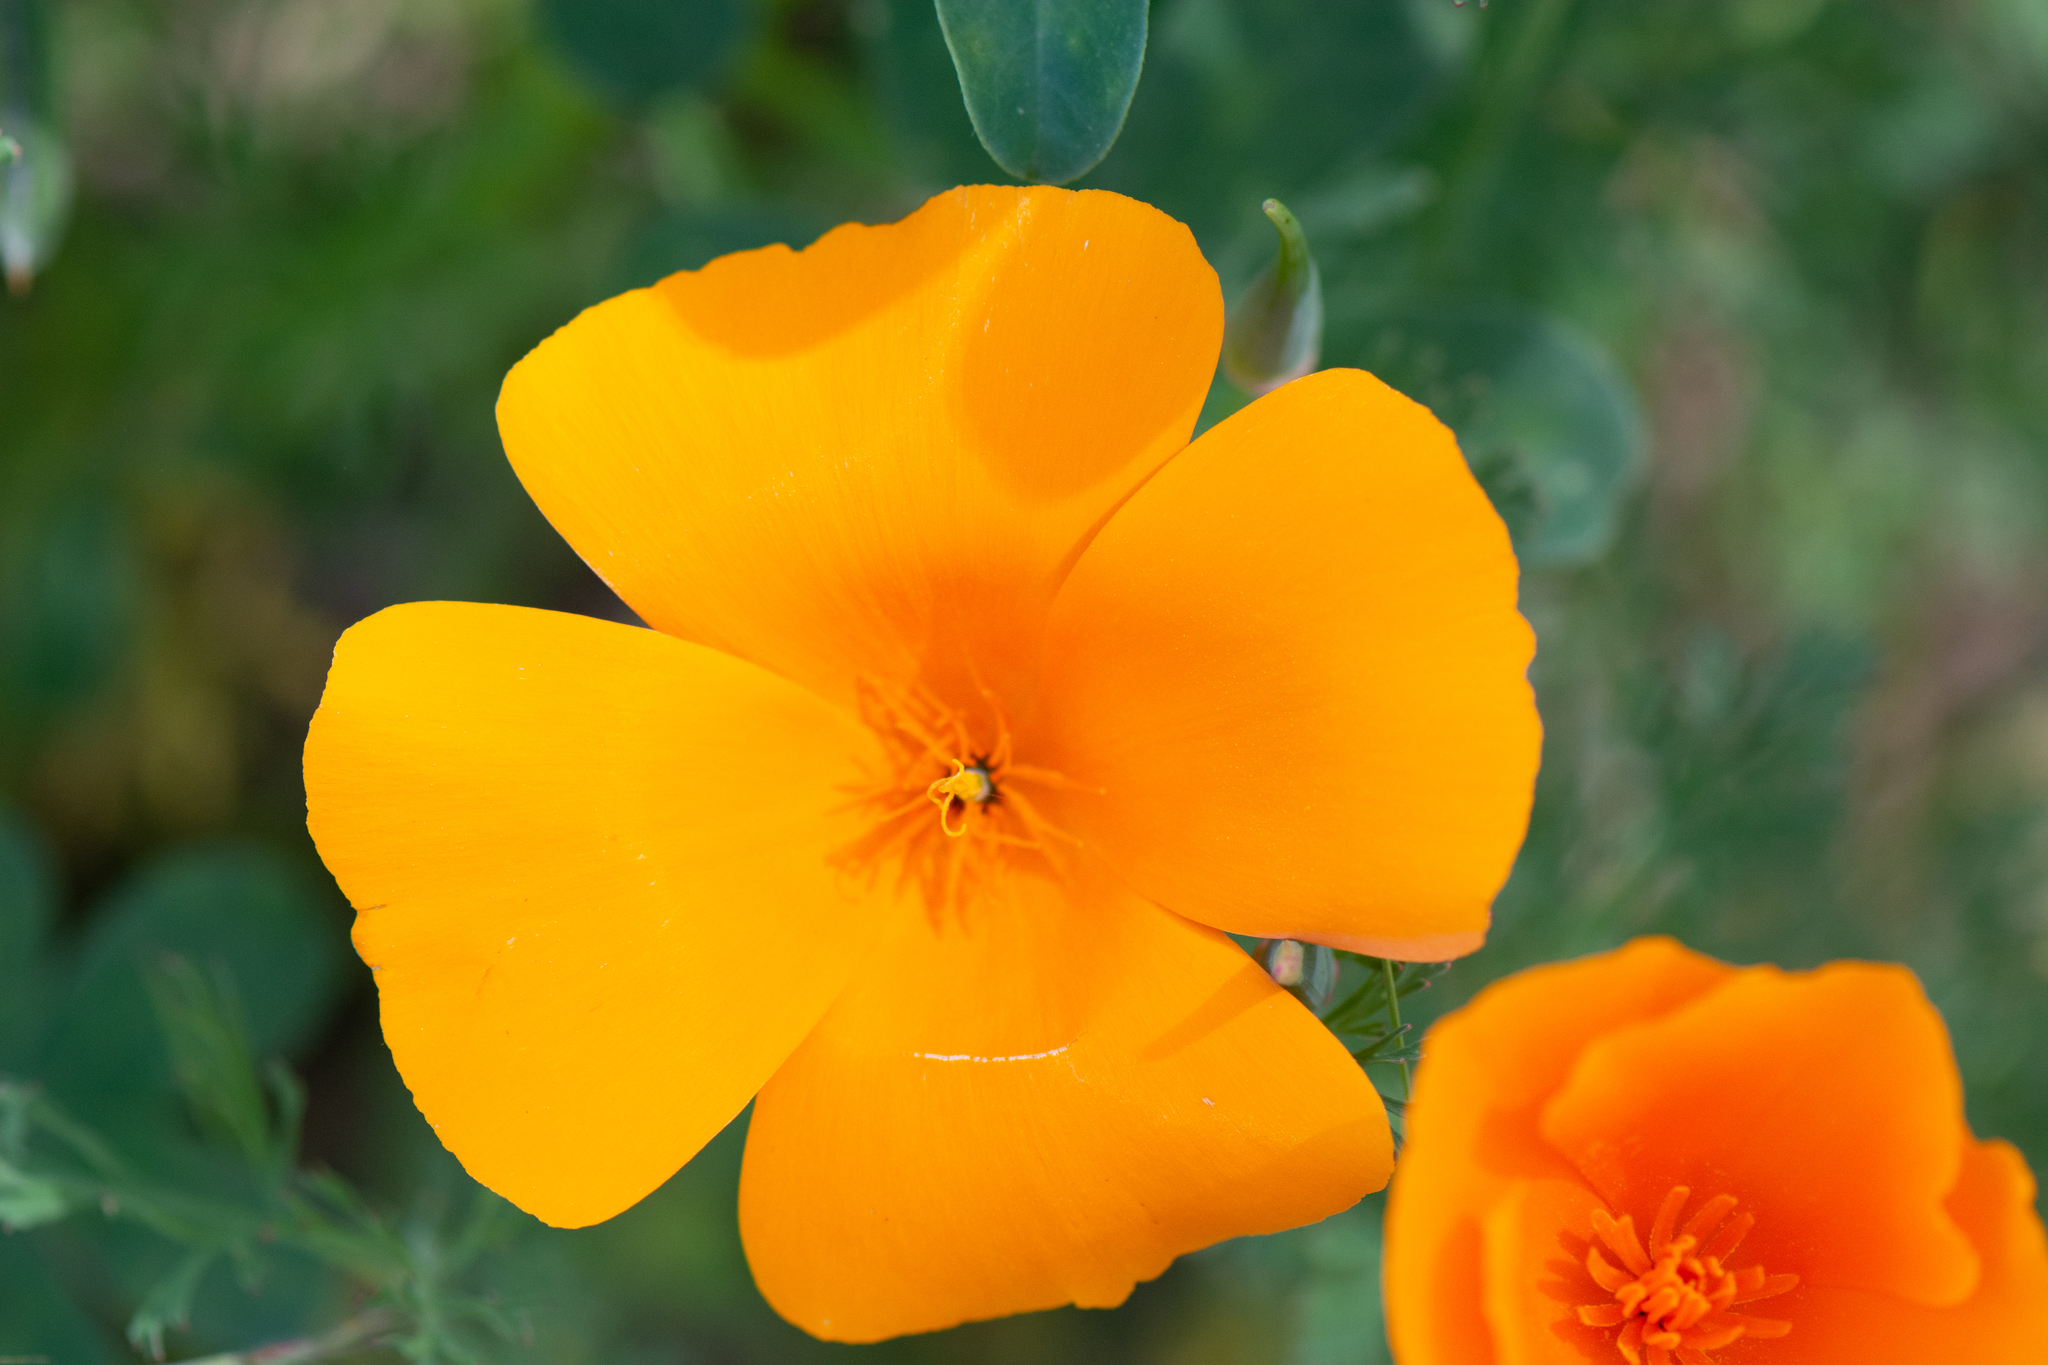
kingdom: Plantae
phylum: Tracheophyta
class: Magnoliopsida
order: Ranunculales
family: Papaveraceae
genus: Eschscholzia
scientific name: Eschscholzia californica
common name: California poppy
